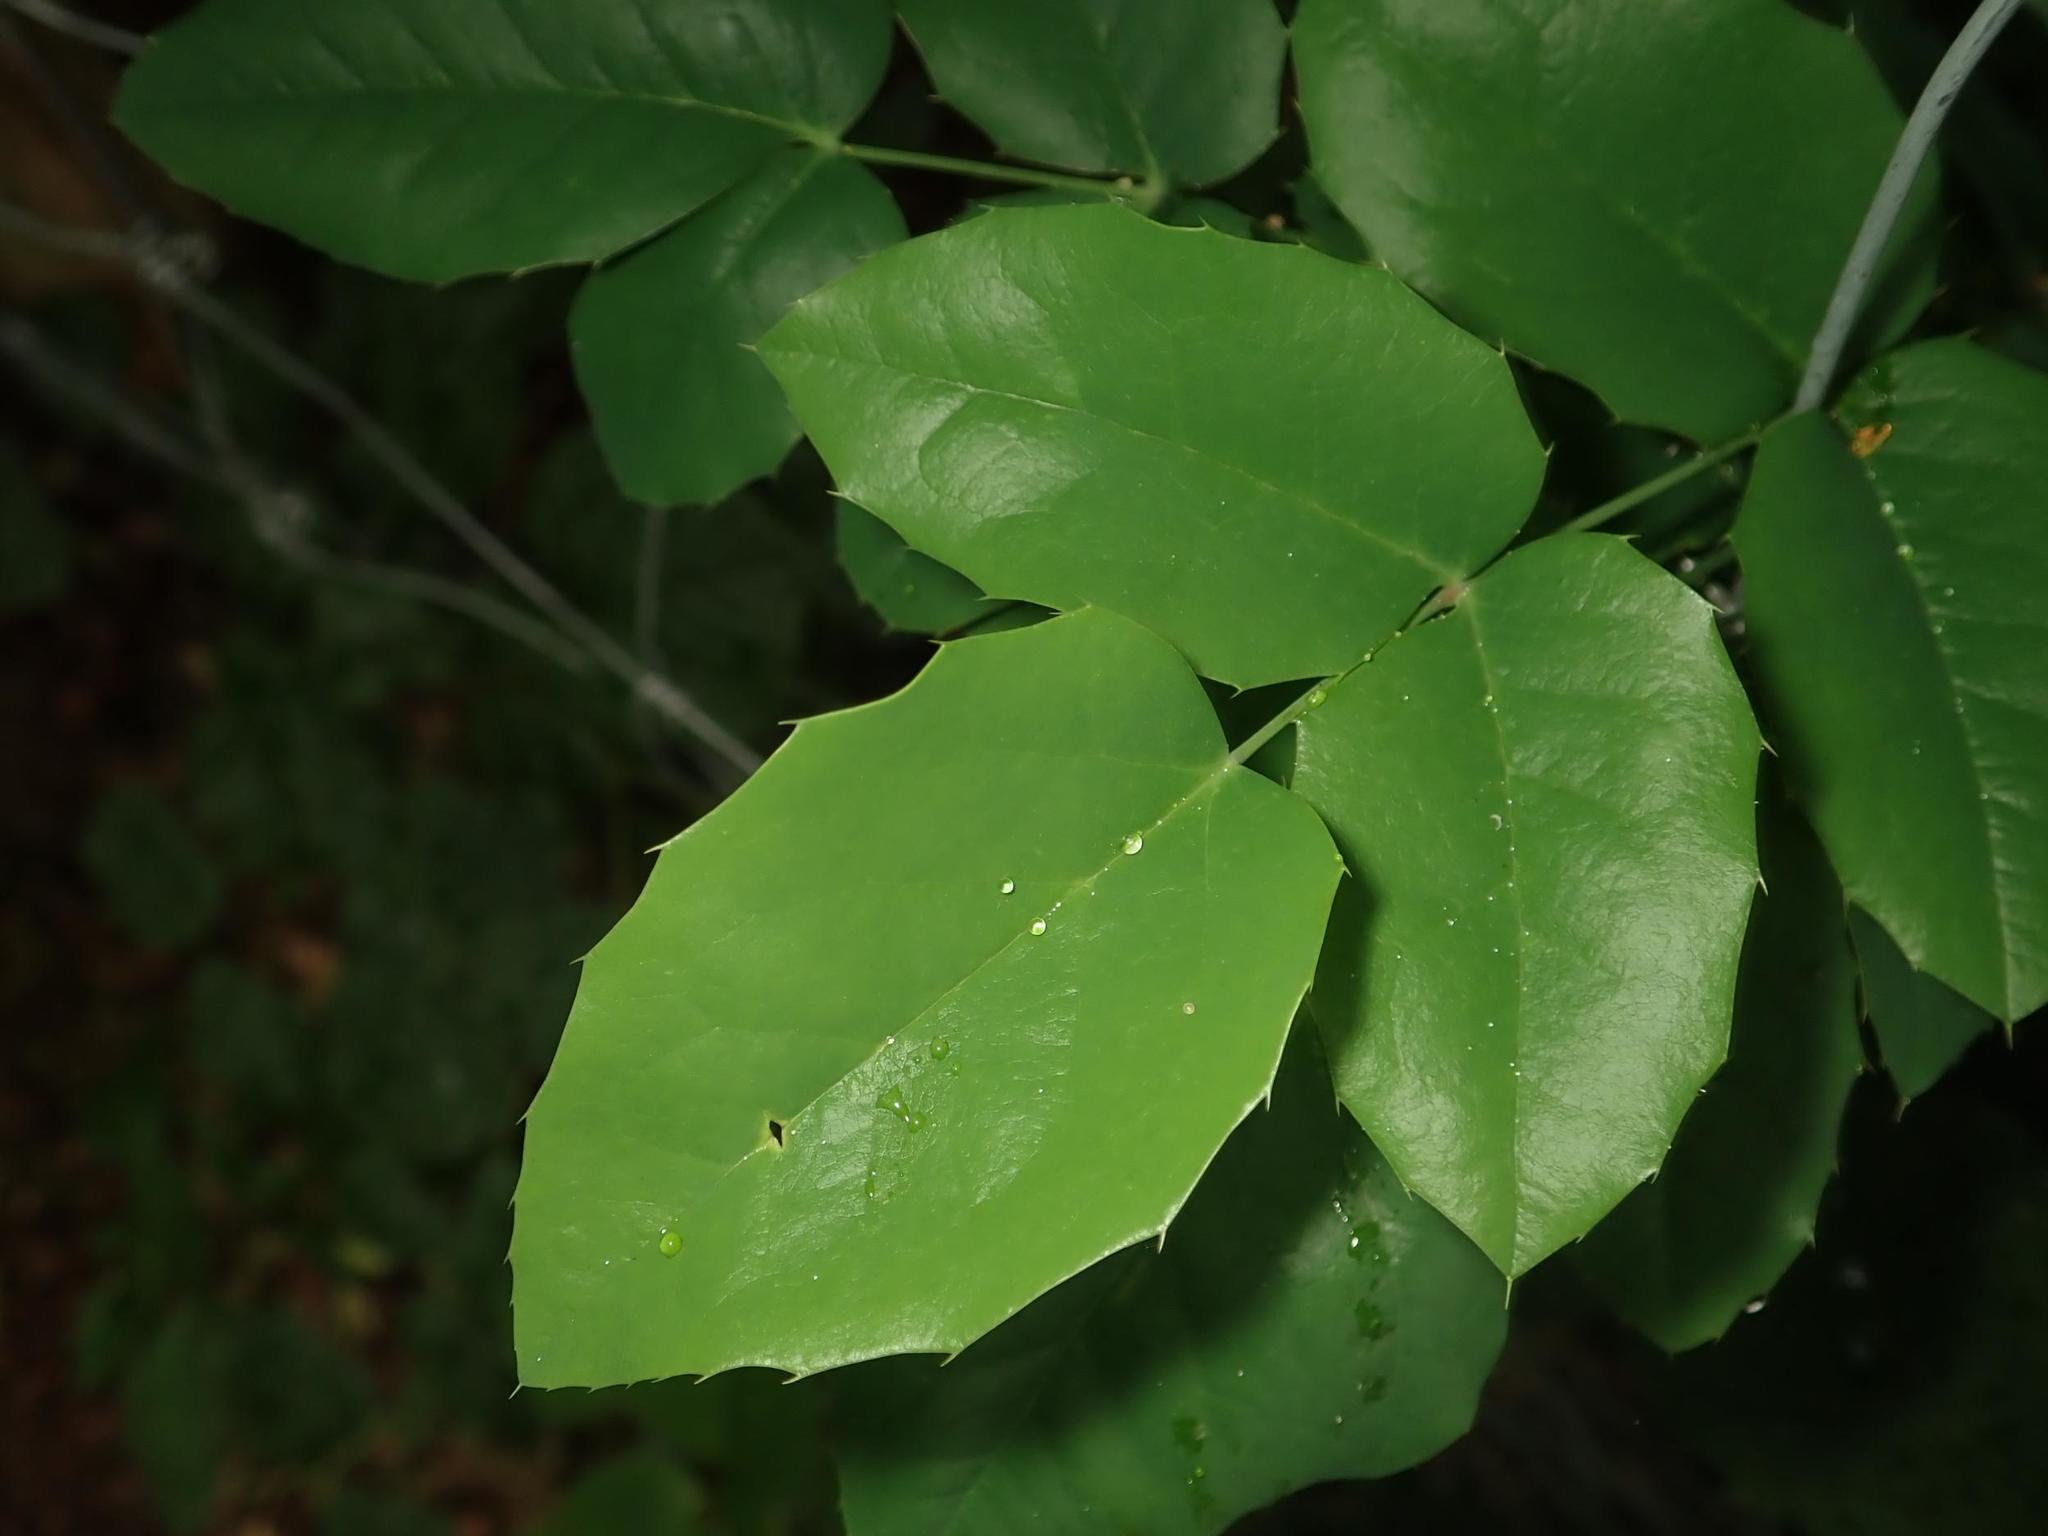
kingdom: Plantae
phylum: Tracheophyta
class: Magnoliopsida
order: Ranunculales
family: Berberidaceae
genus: Mahonia
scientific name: Mahonia aquifolium
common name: Oregon-grape
